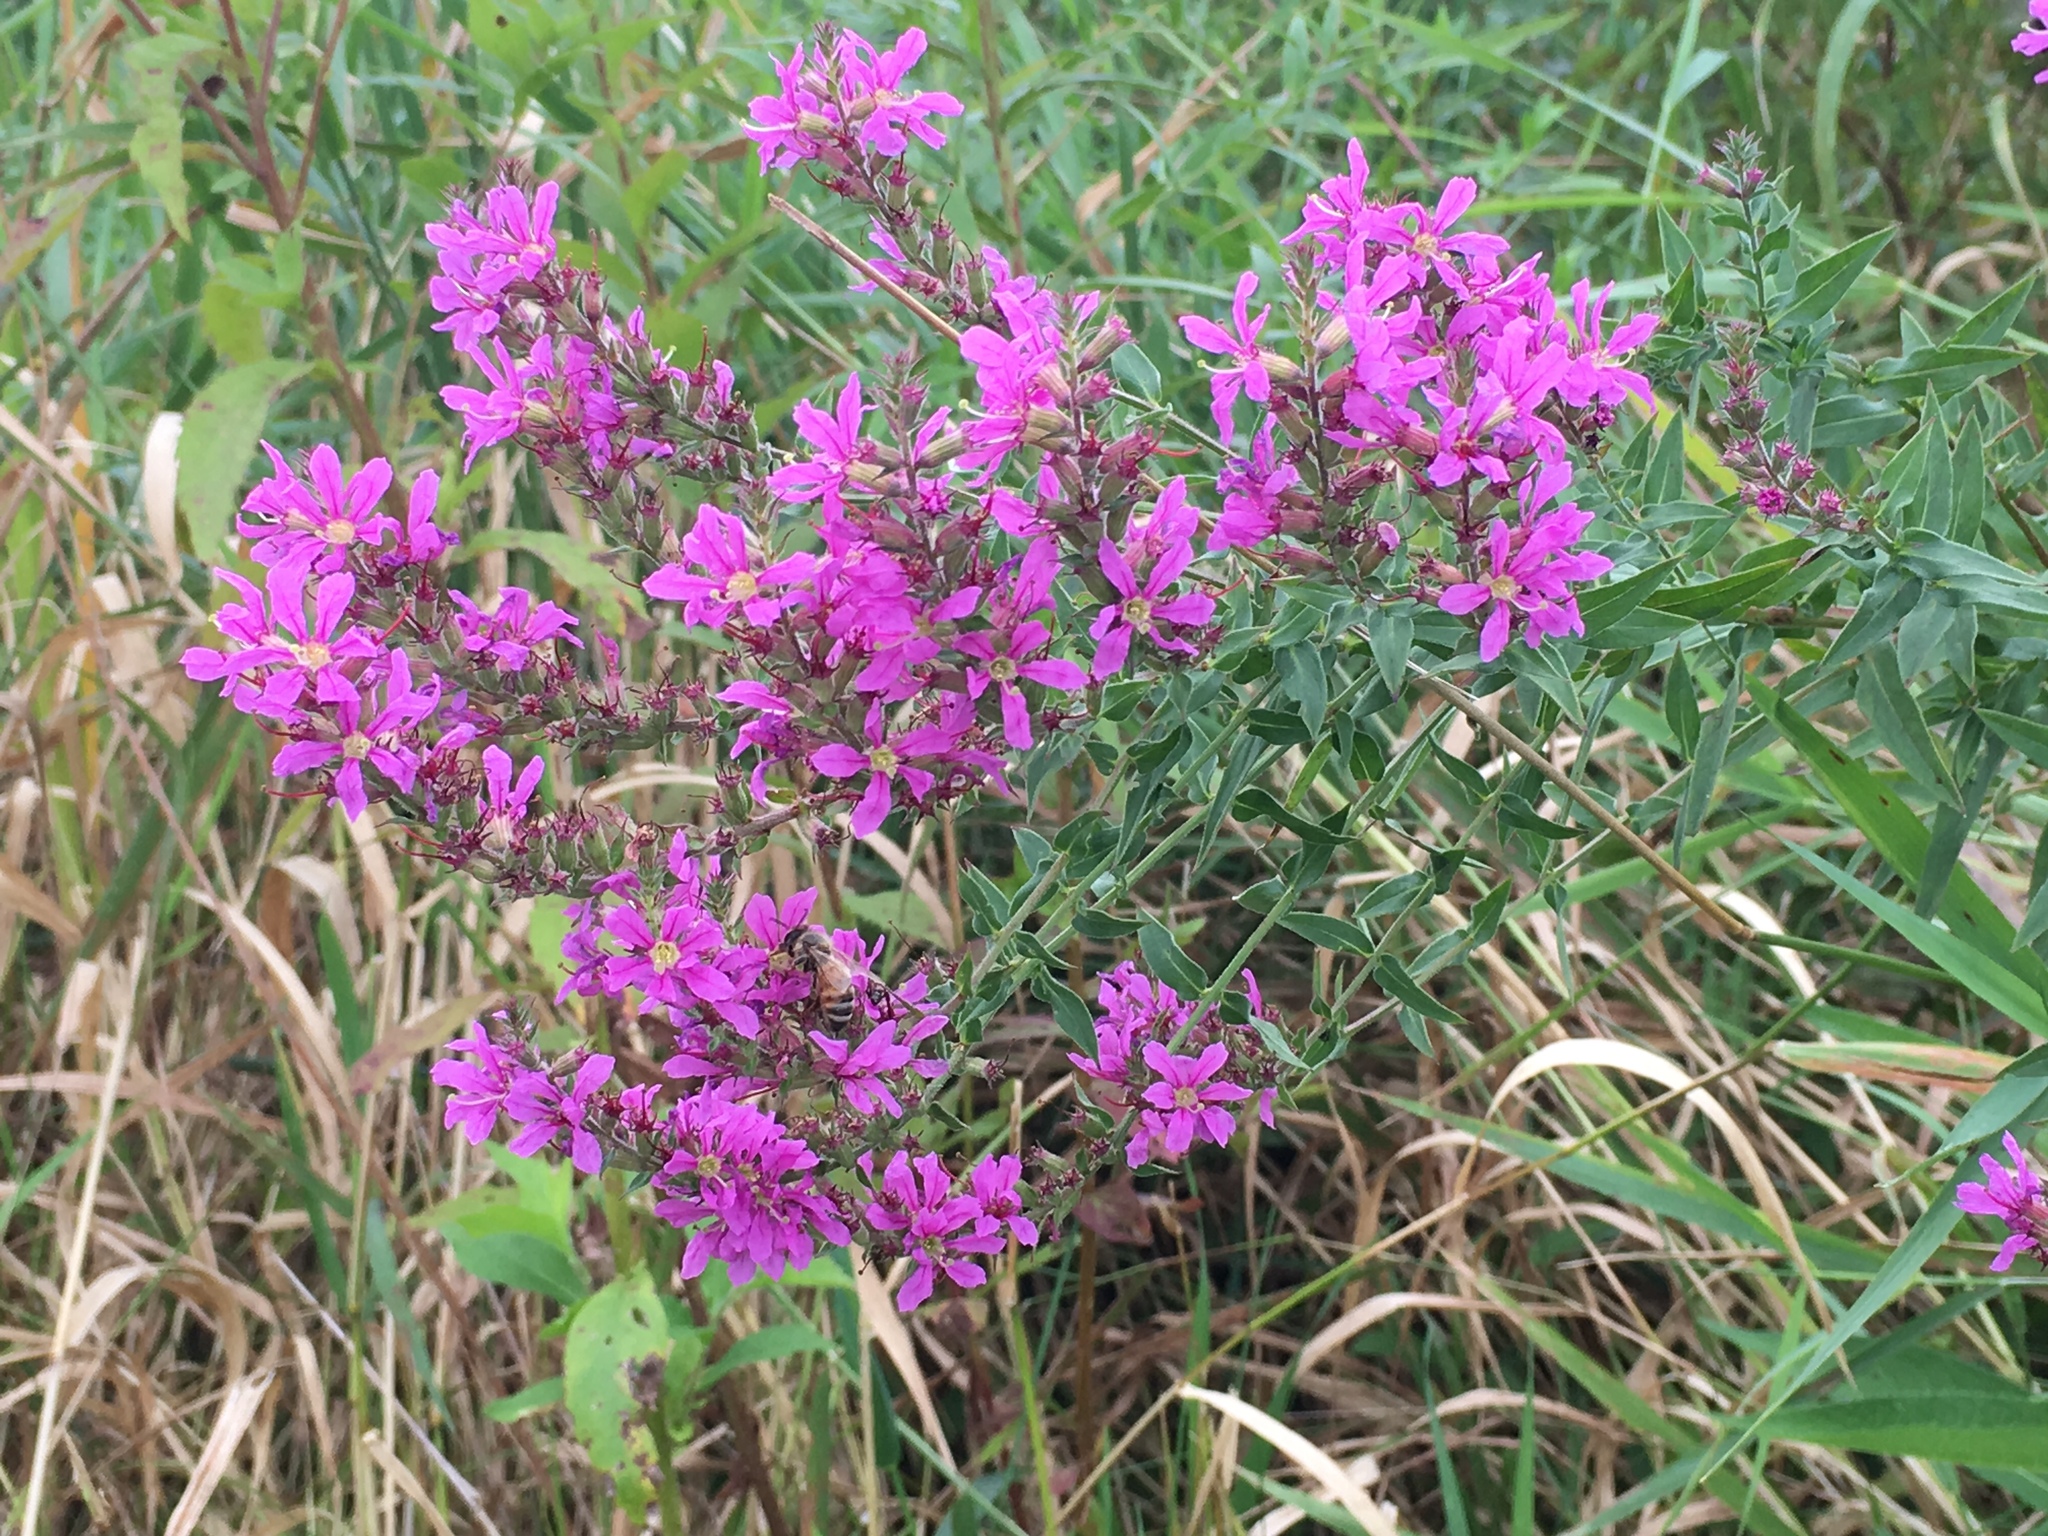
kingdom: Plantae
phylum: Tracheophyta
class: Magnoliopsida
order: Myrtales
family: Lythraceae
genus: Lythrum
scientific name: Lythrum salicaria
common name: Purple loosestrife
